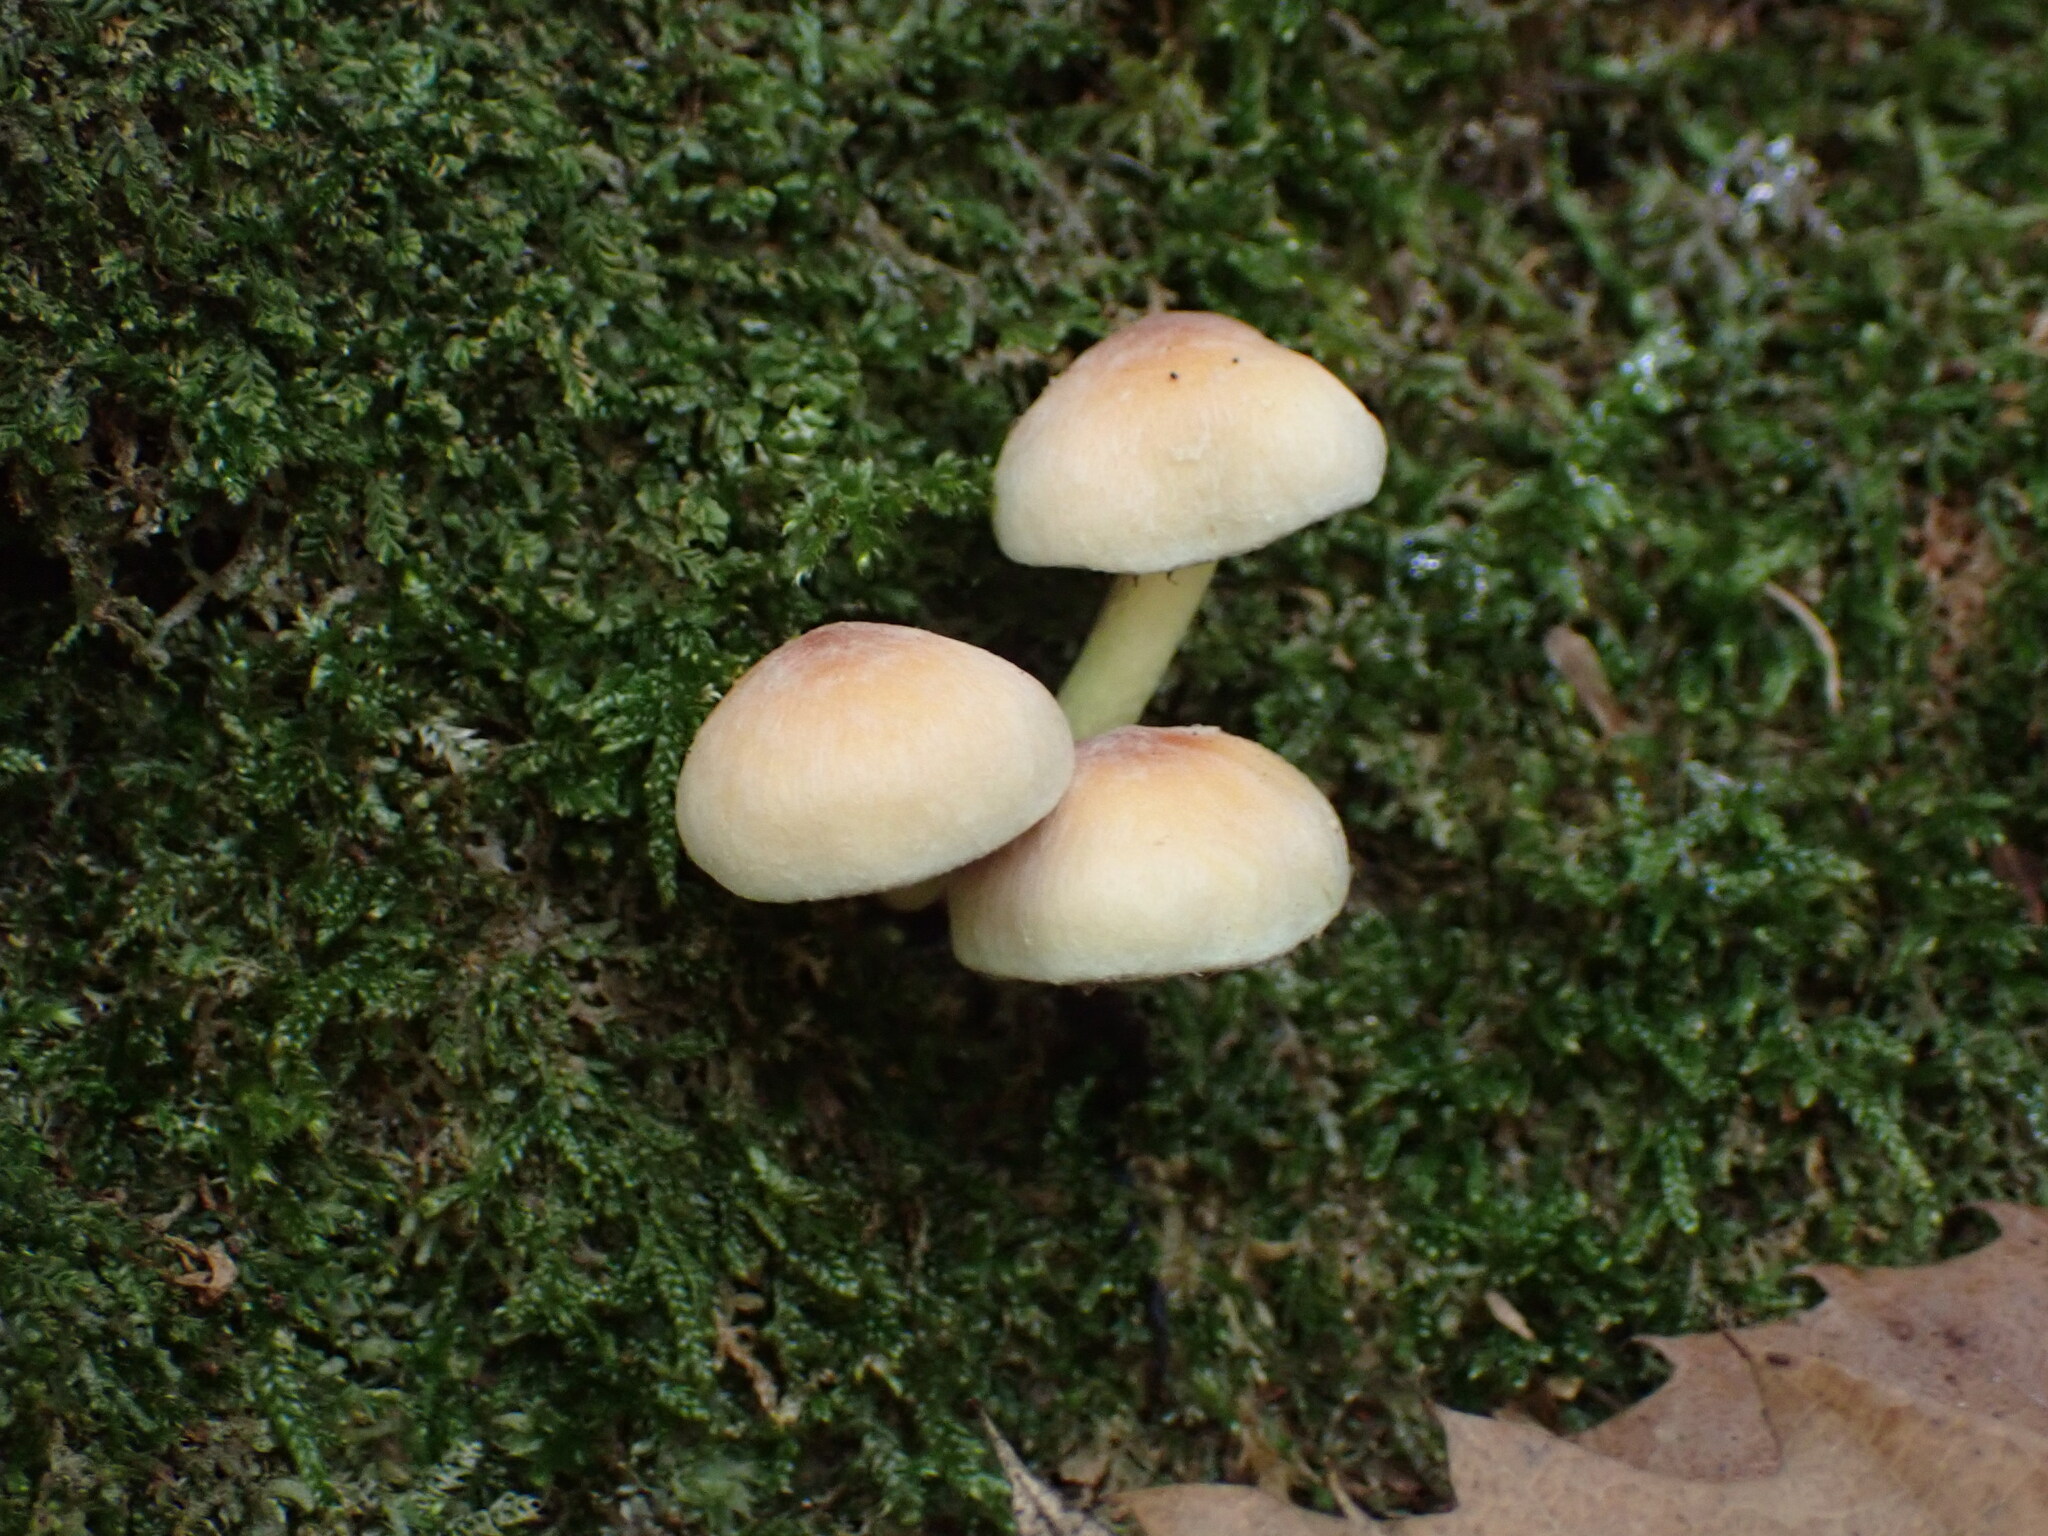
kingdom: Fungi
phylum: Basidiomycota
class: Agaricomycetes
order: Agaricales
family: Strophariaceae
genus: Hypholoma
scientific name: Hypholoma fasciculare
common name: Sulphur tuft
